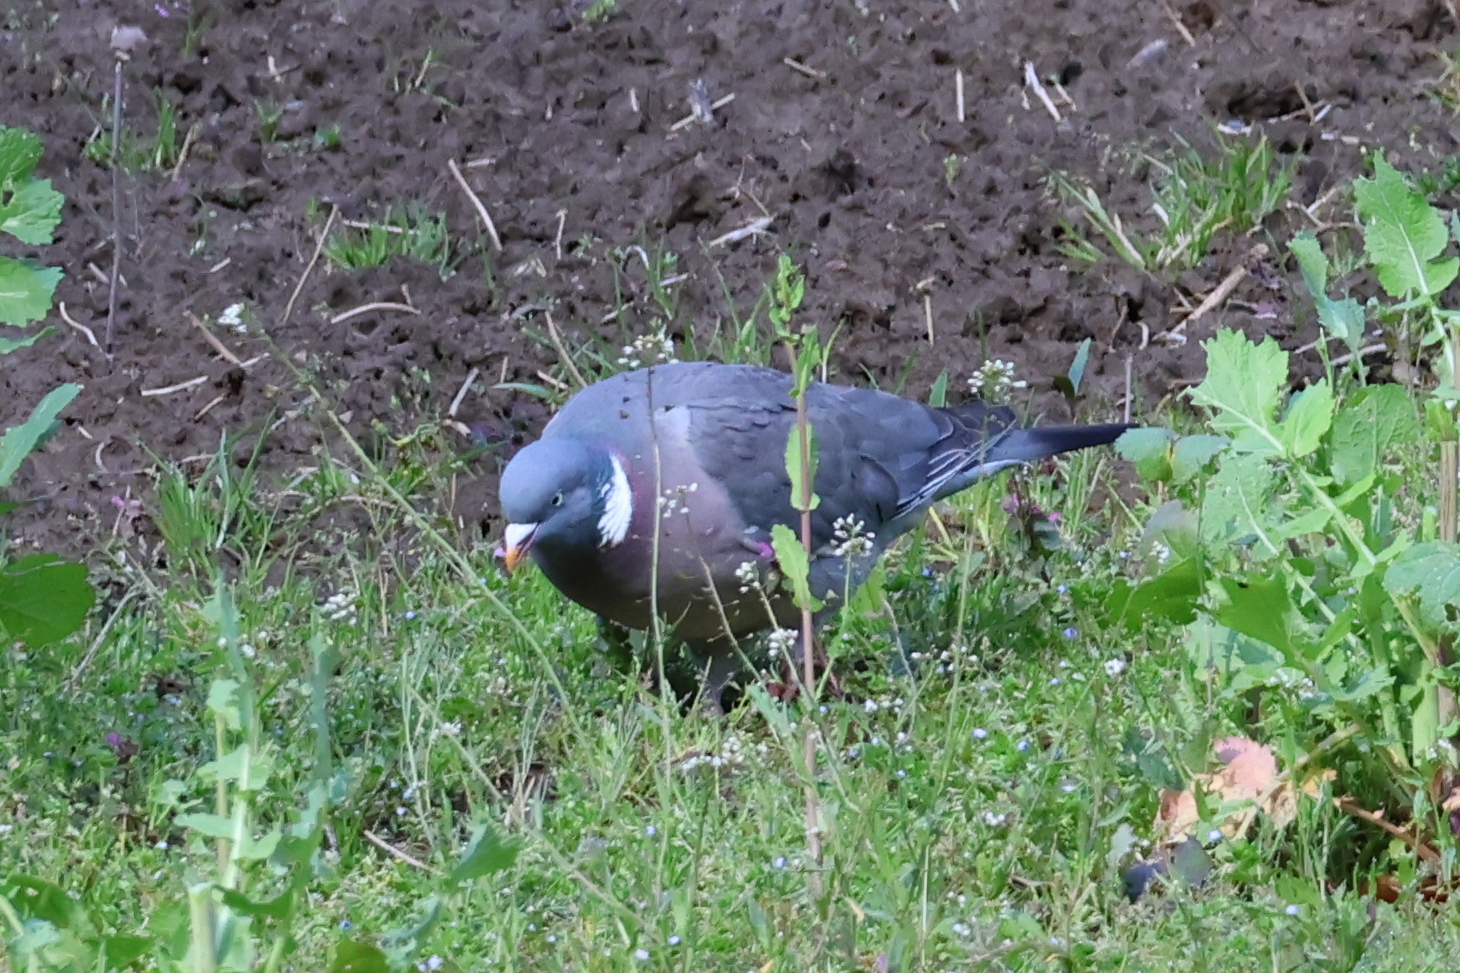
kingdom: Animalia
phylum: Chordata
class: Aves
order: Columbiformes
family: Columbidae
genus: Columba
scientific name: Columba palumbus
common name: Common wood pigeon
